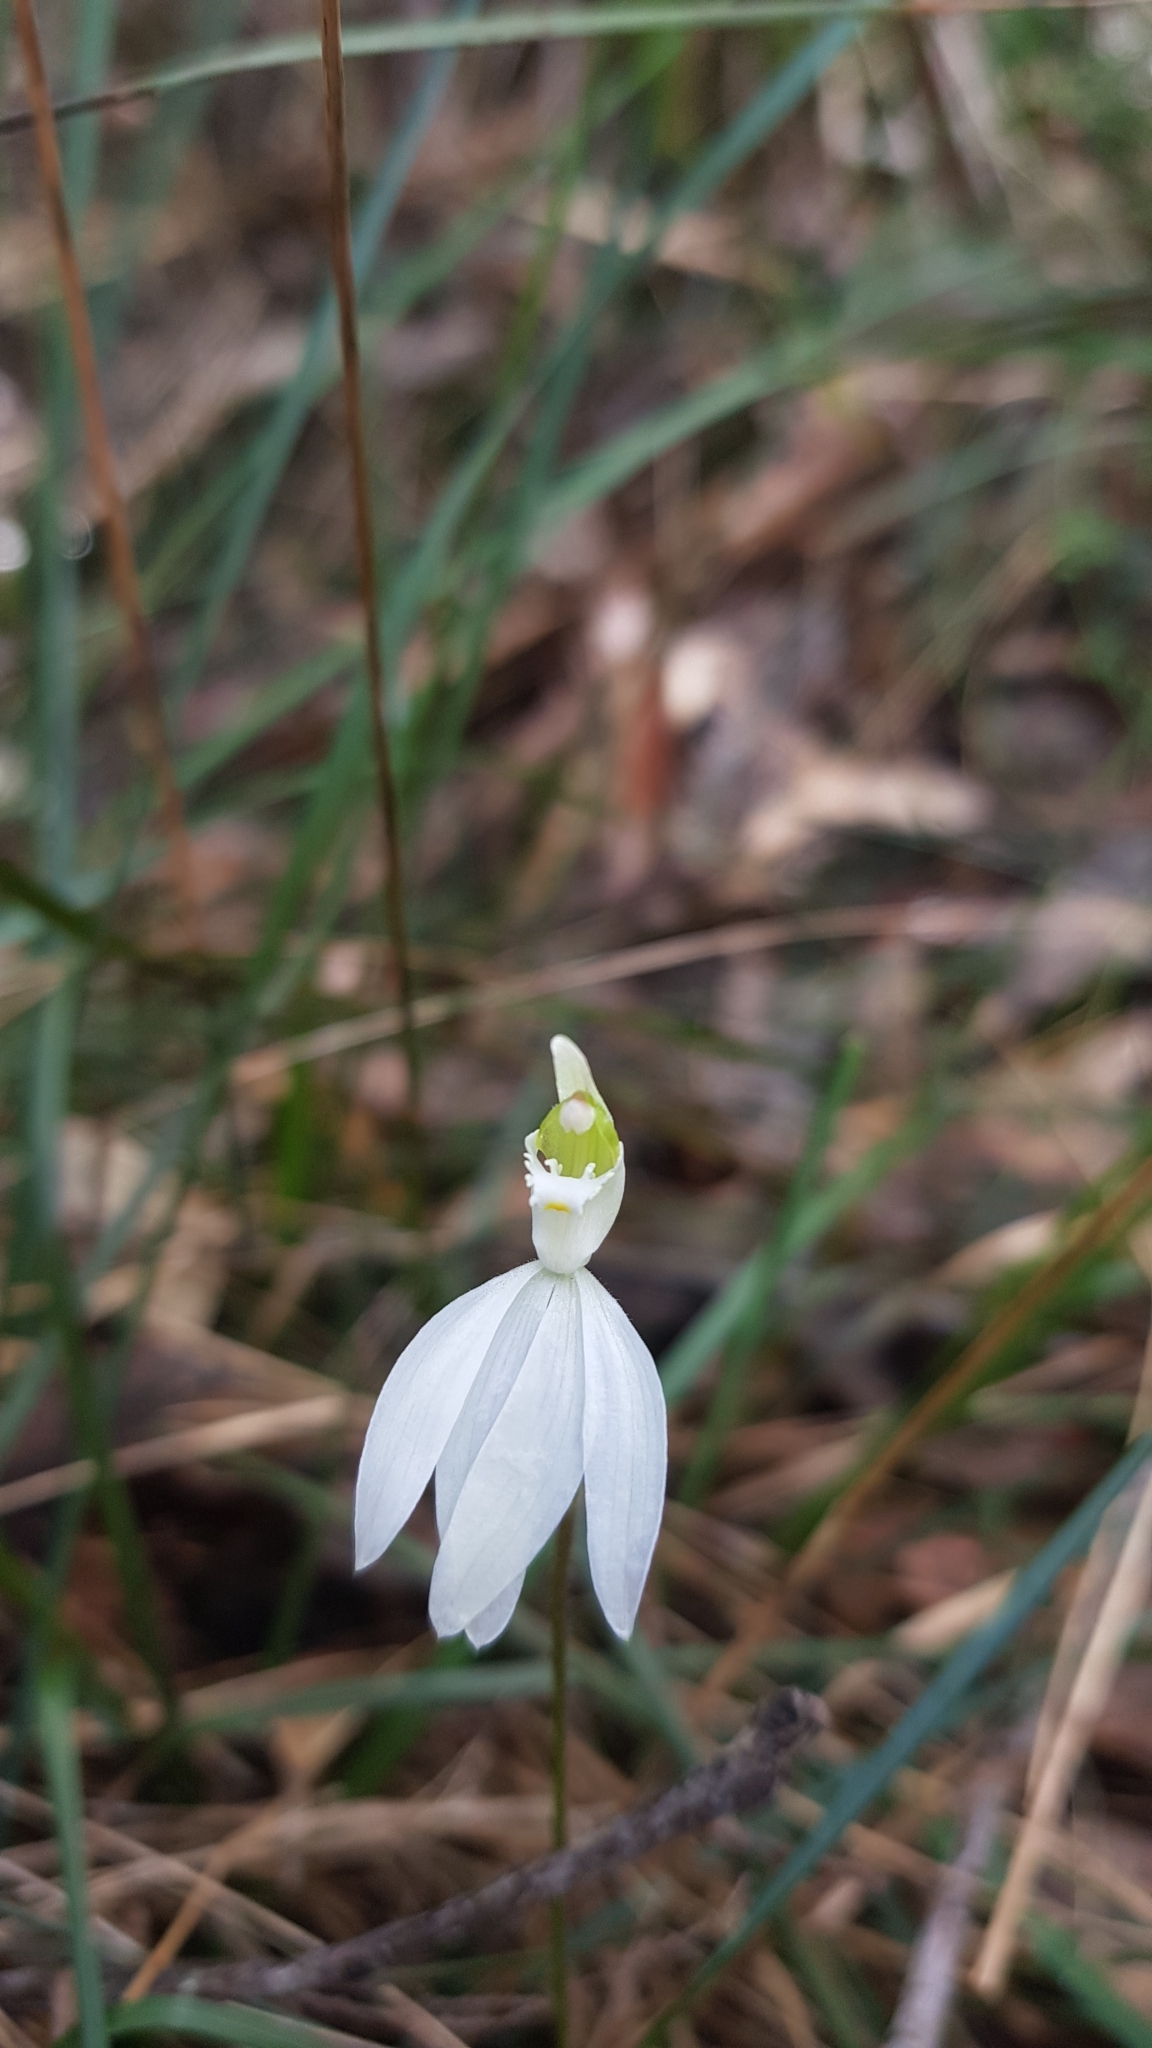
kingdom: Plantae
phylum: Tracheophyta
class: Liliopsida
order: Asparagales
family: Orchidaceae
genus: Caladenia
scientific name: Caladenia catenata
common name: White caladenia
